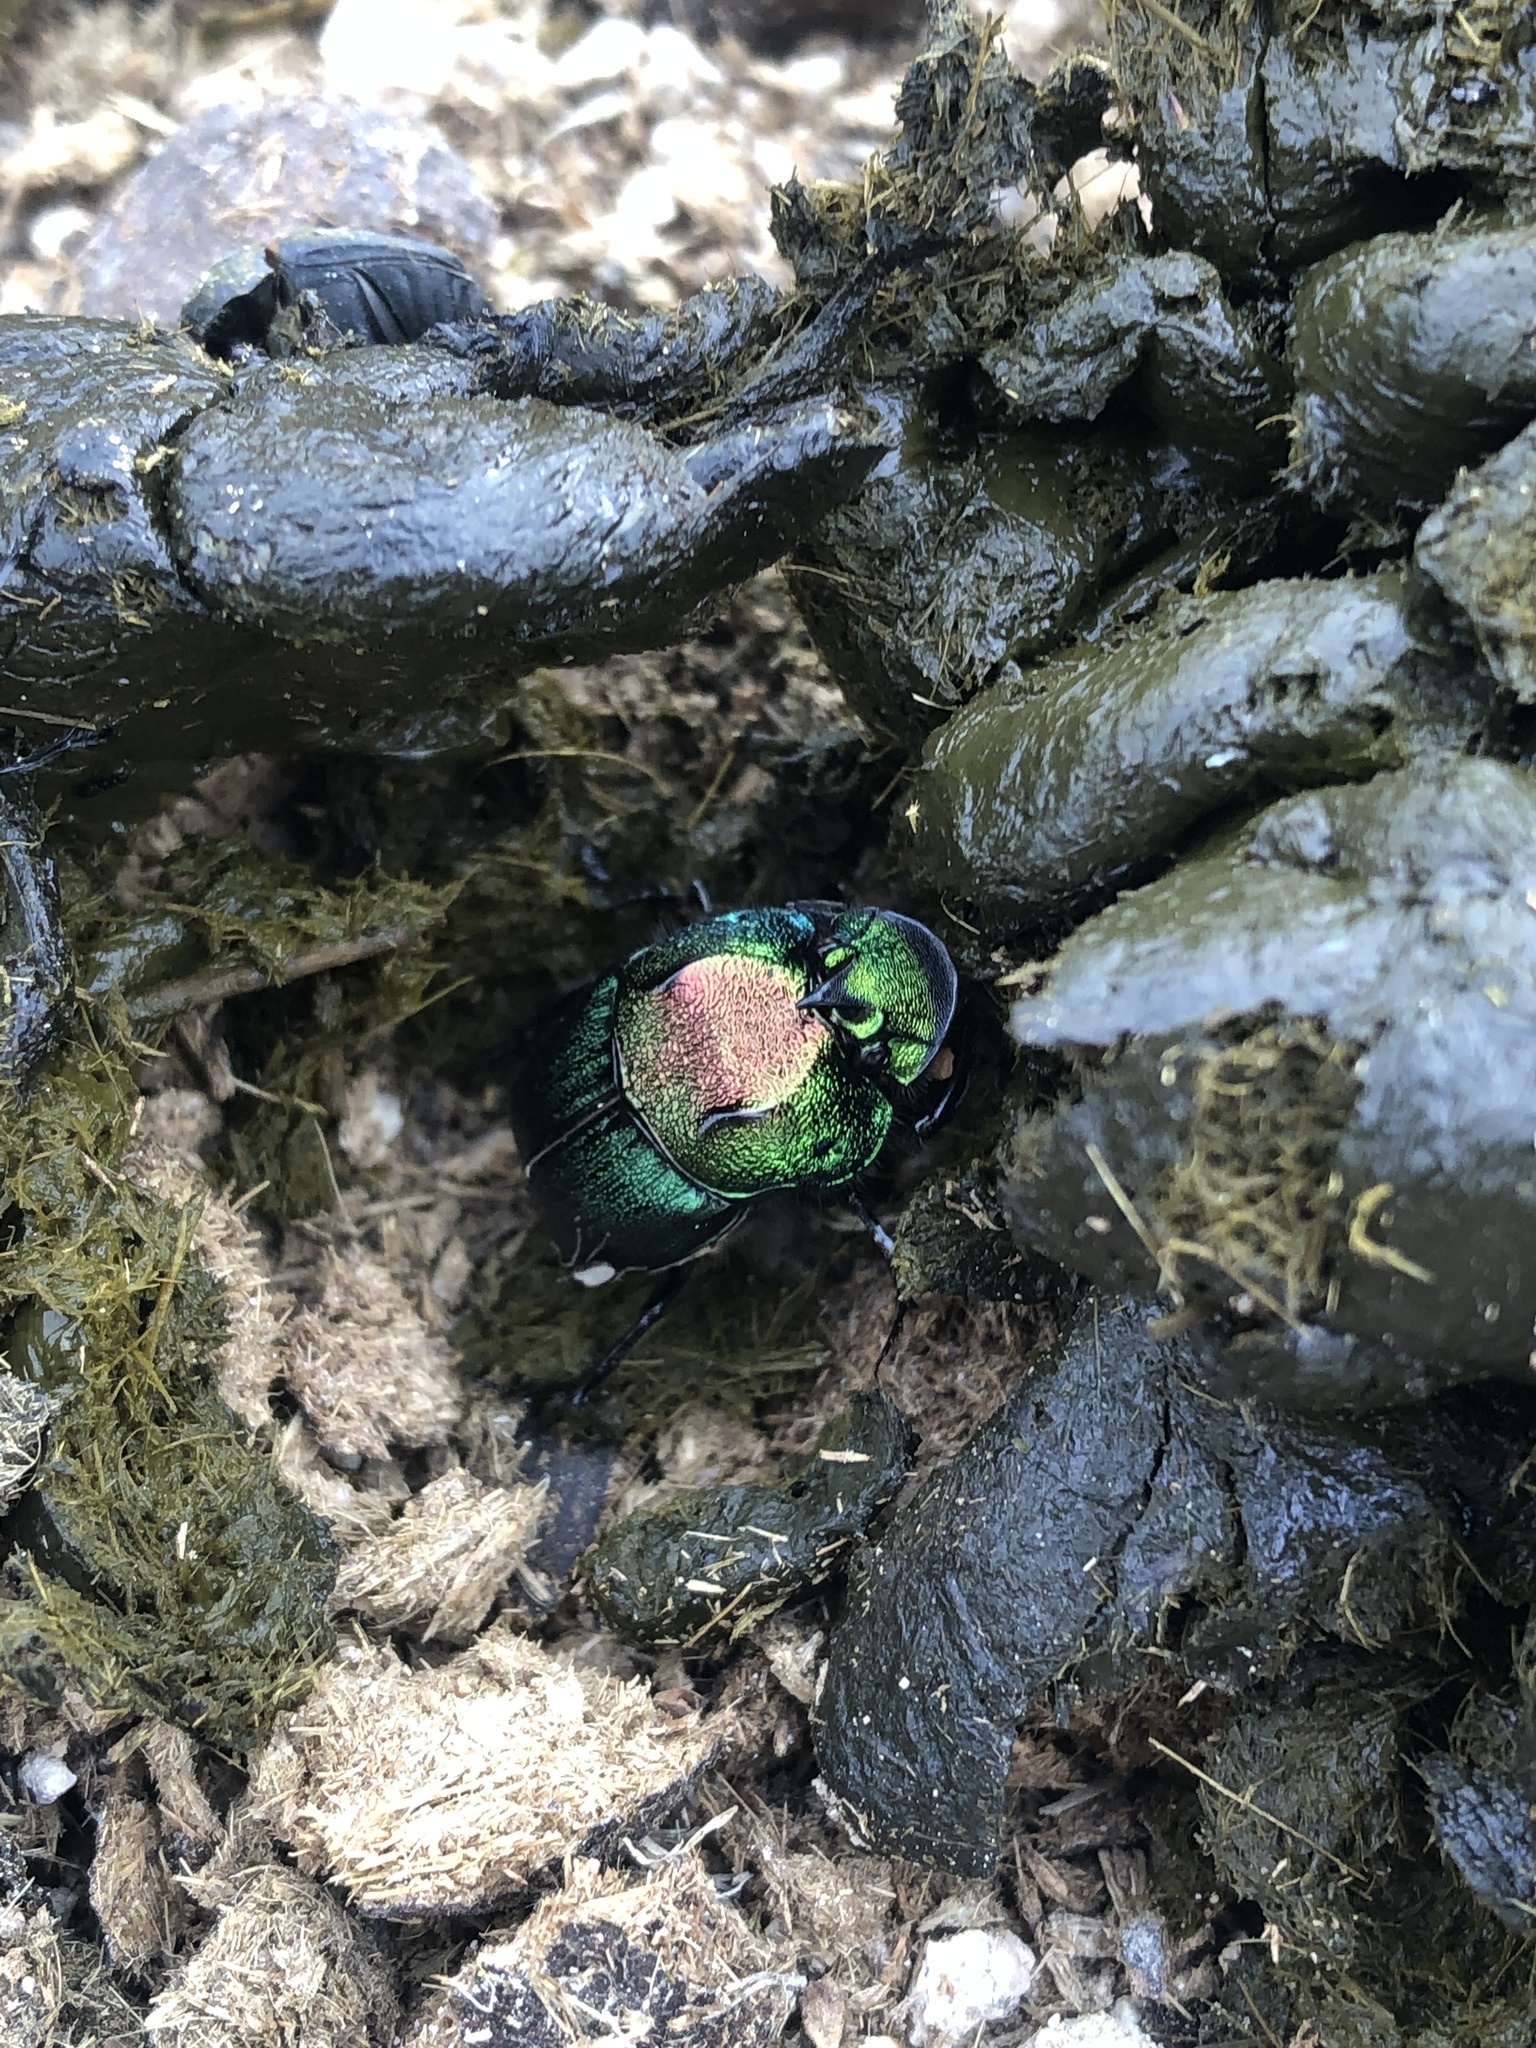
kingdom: Animalia
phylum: Arthropoda
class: Insecta
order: Coleoptera
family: Scarabaeidae
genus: Phanaeus
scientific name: Phanaeus difformis
